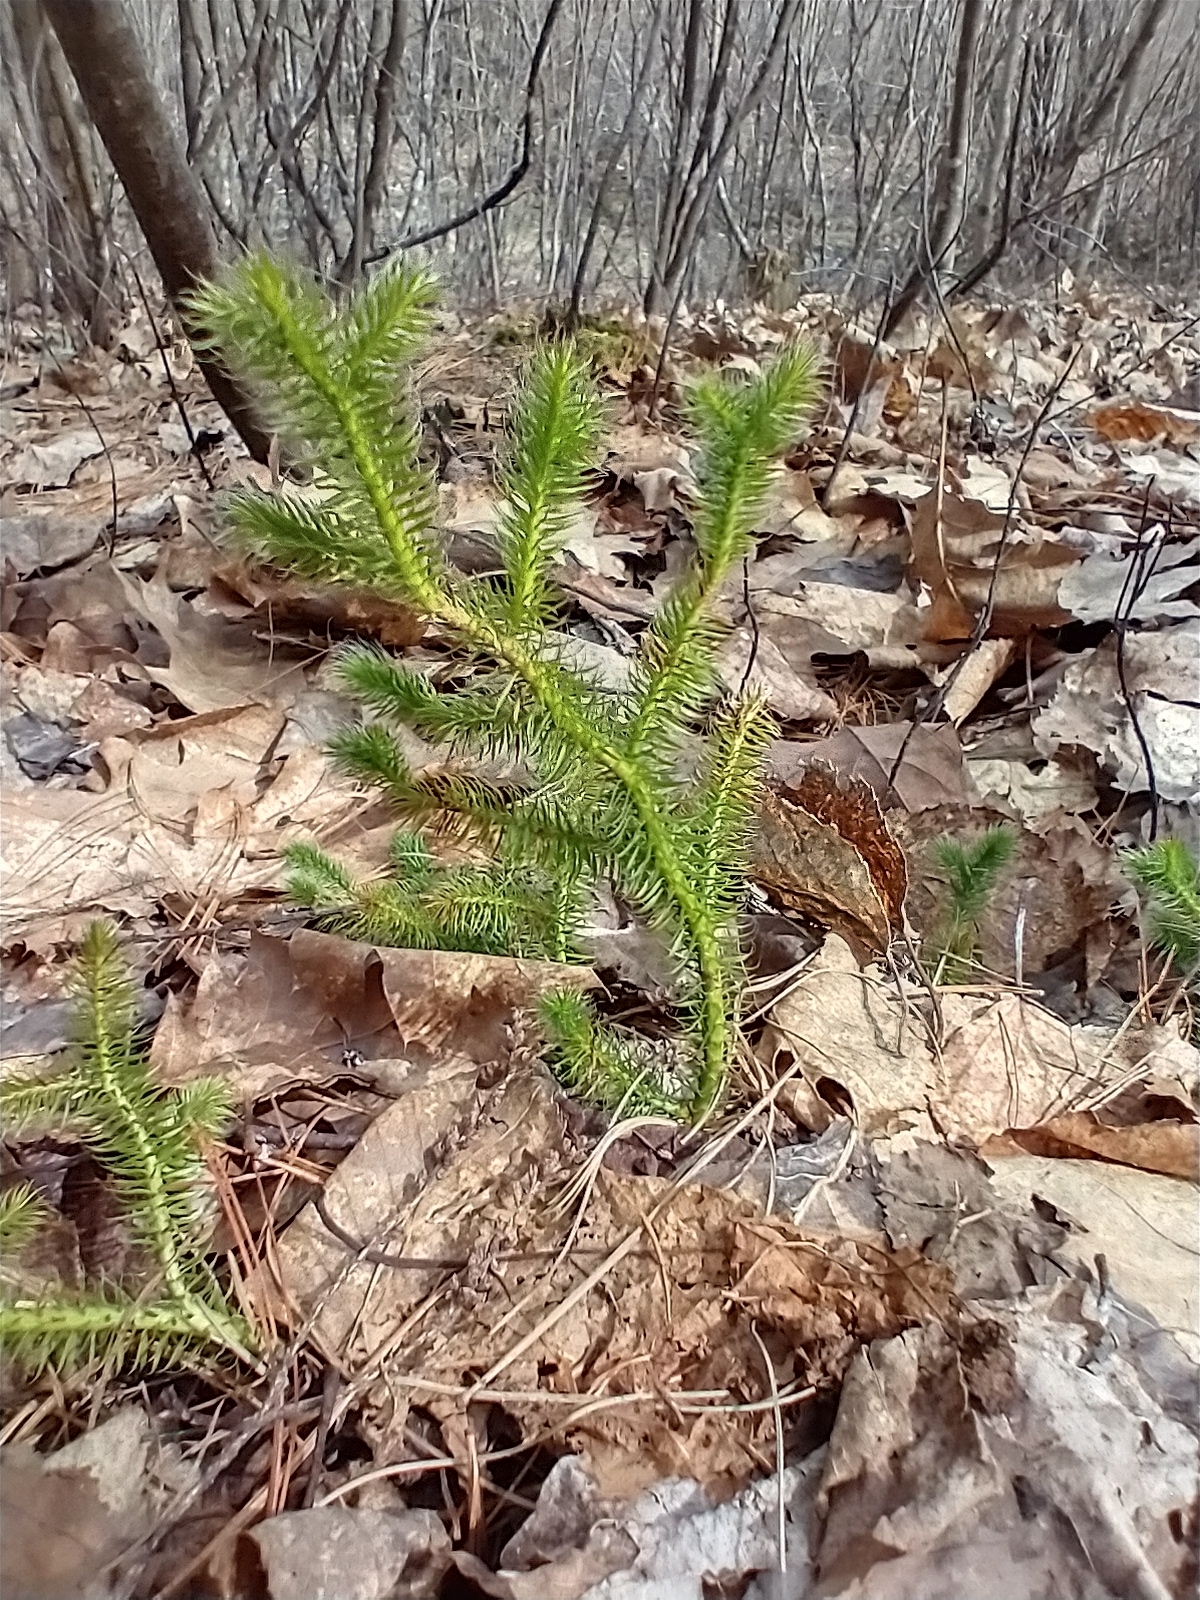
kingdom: Plantae
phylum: Tracheophyta
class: Lycopodiopsida
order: Lycopodiales
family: Lycopodiaceae
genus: Lycopodium
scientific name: Lycopodium clavatum
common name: Stag's-horn clubmoss
